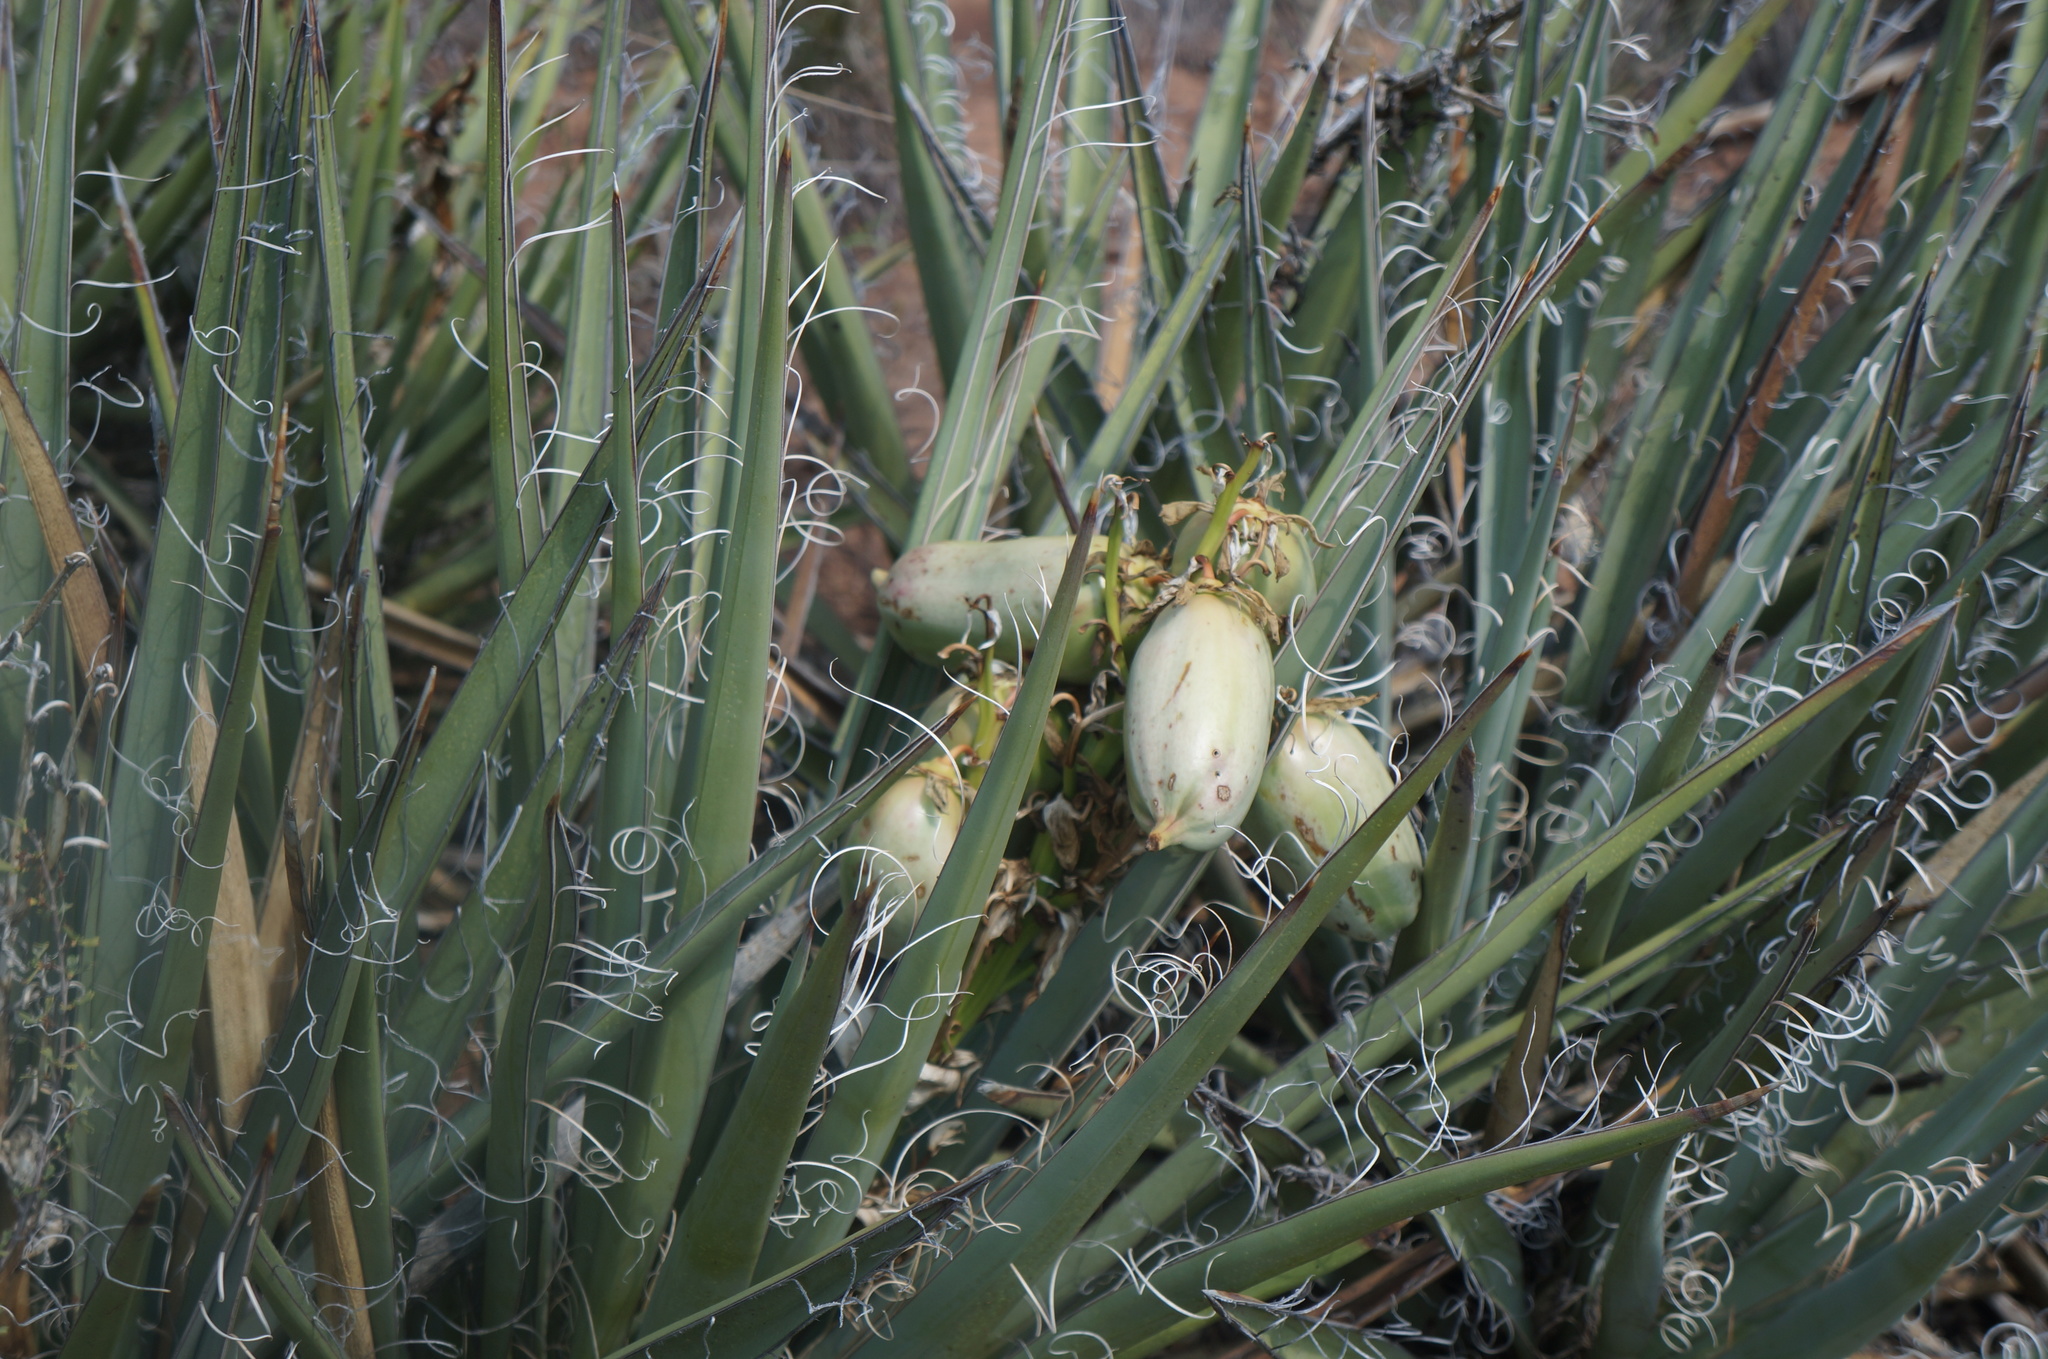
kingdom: Plantae
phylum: Tracheophyta
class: Liliopsida
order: Asparagales
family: Asparagaceae
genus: Yucca
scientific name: Yucca baccata
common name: Banana yucca
